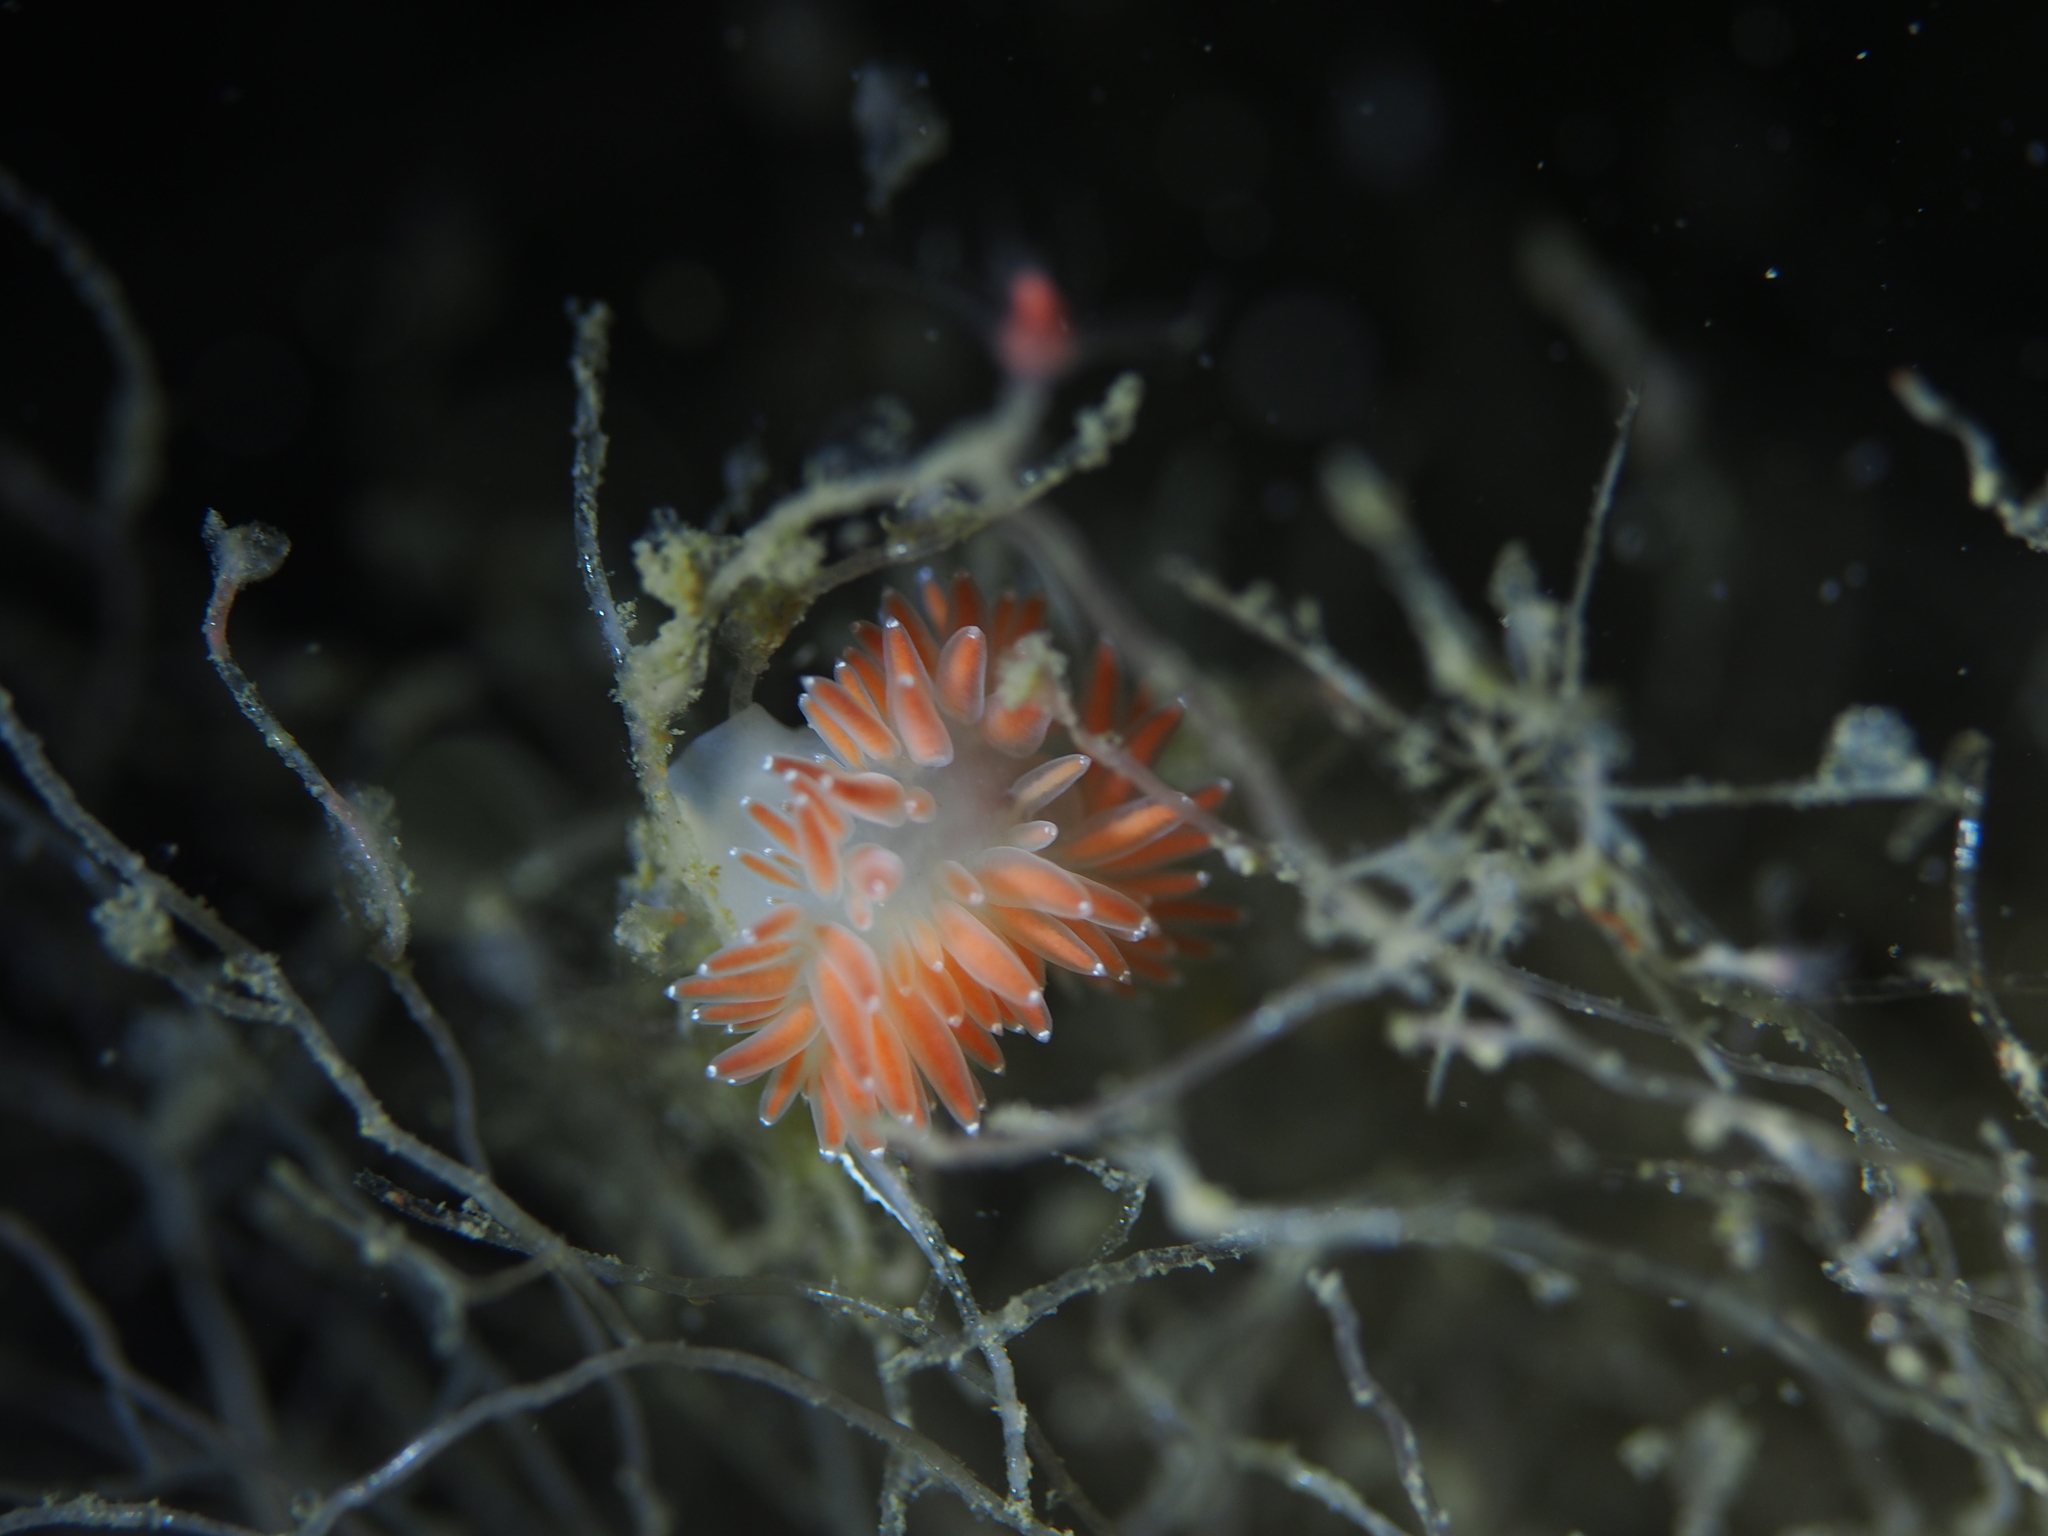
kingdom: Animalia
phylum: Mollusca
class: Gastropoda
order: Nudibranchia
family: Coryphellidae
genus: Coryphella
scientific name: Coryphella verrucosa
